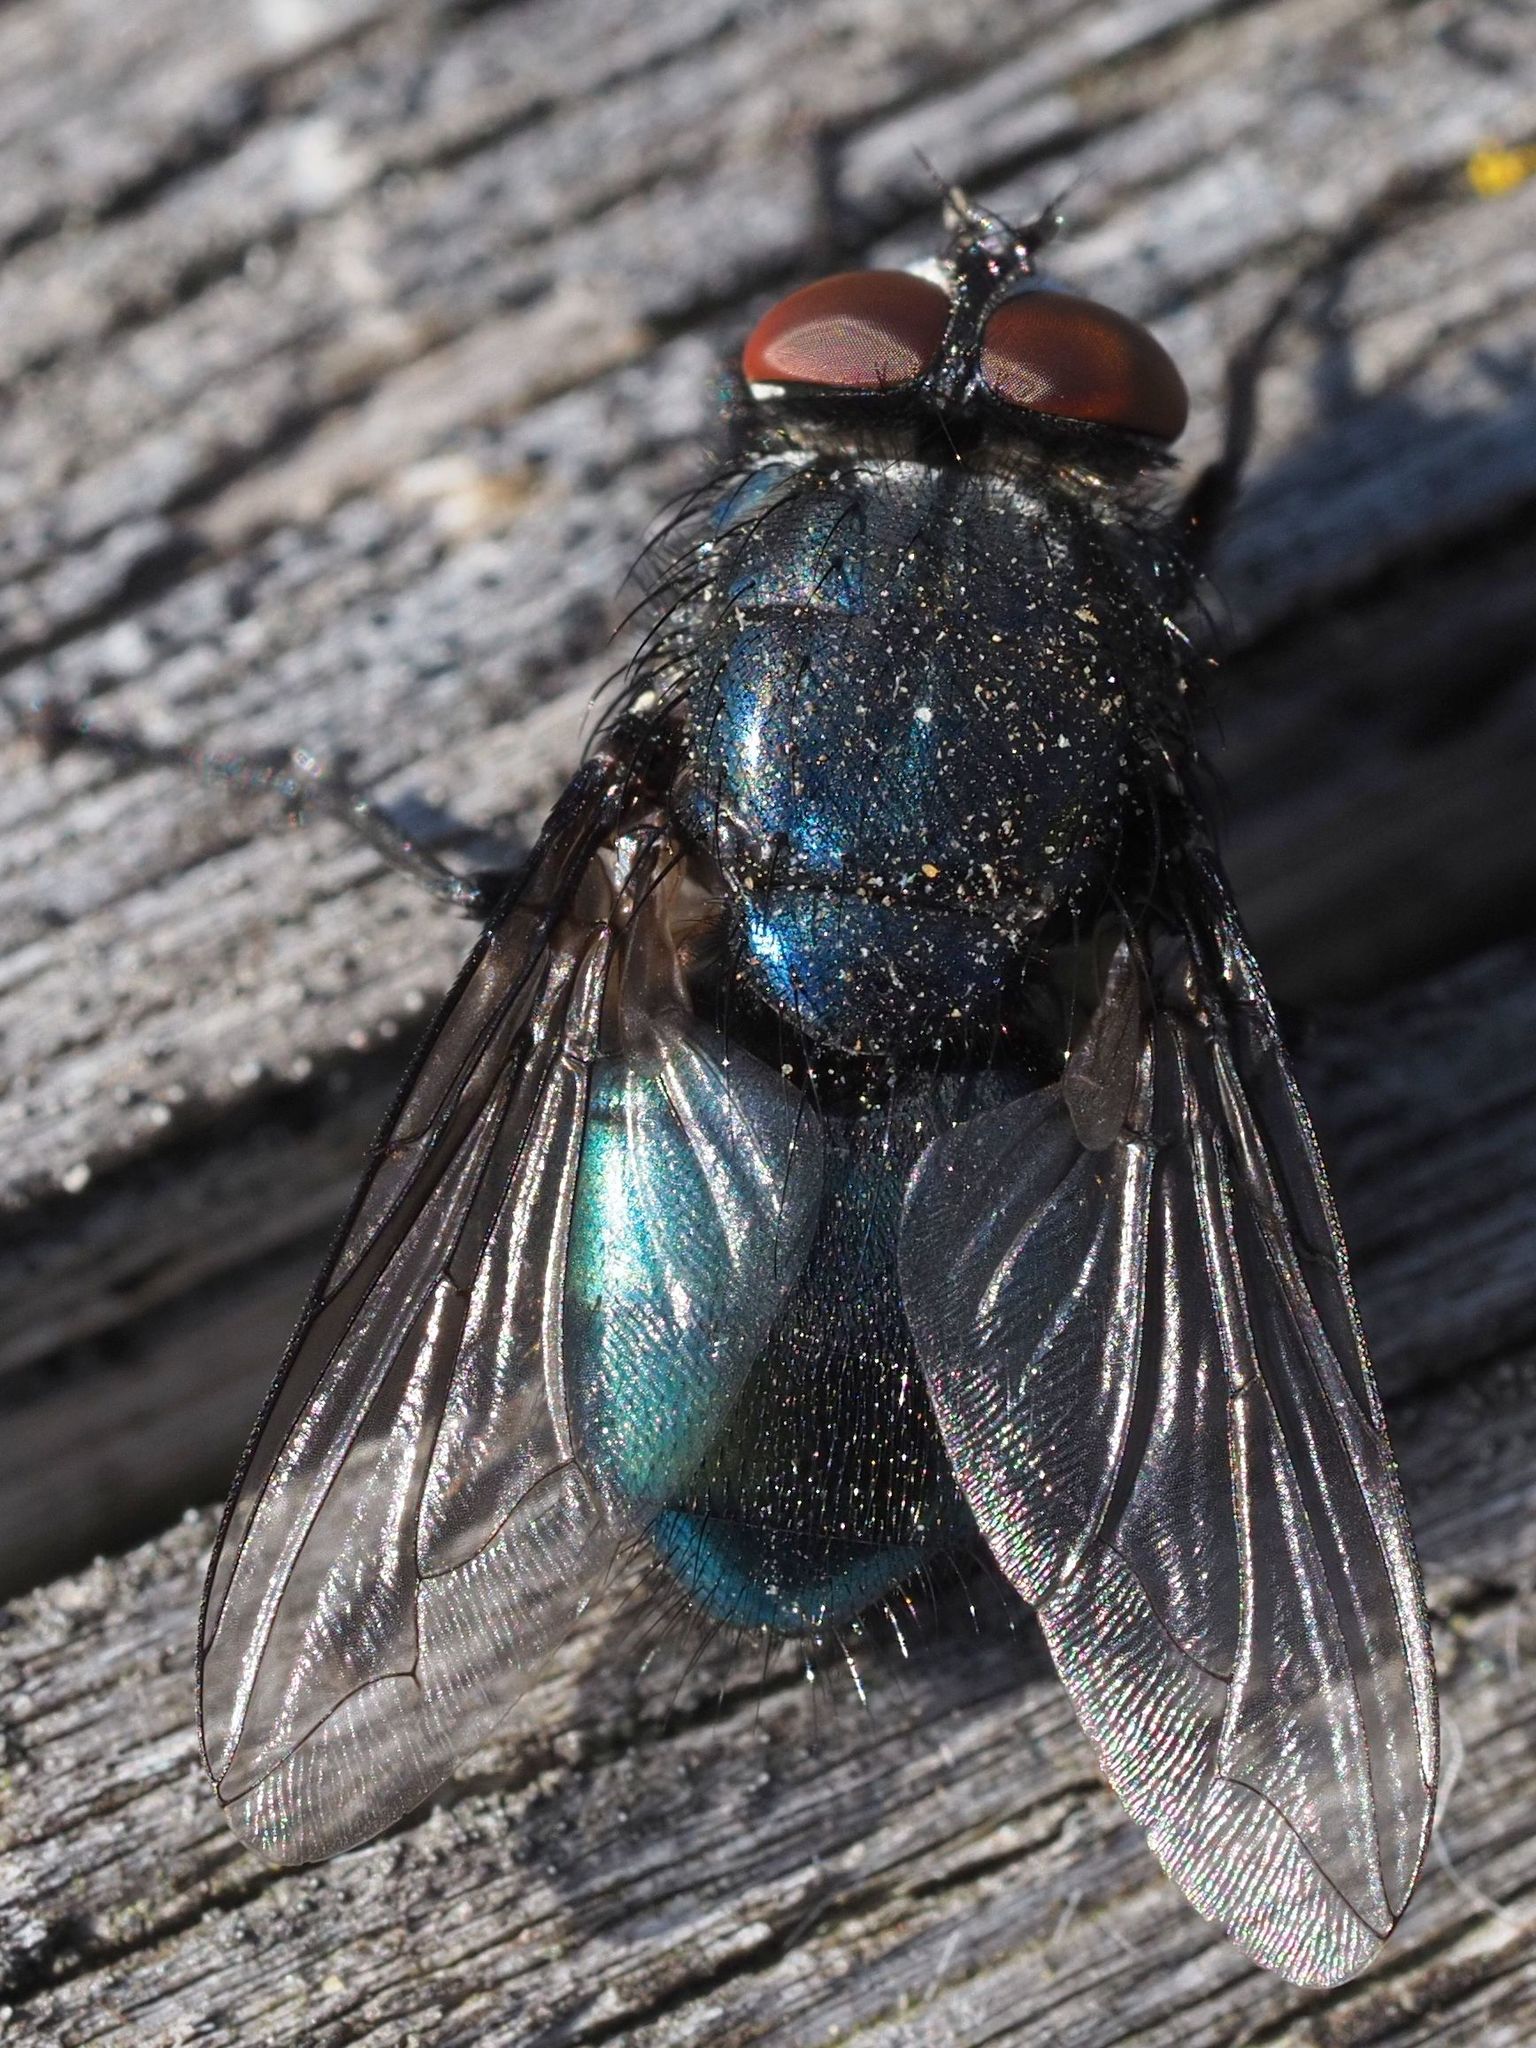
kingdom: Animalia
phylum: Arthropoda
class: Insecta
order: Diptera
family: Calliphoridae
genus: Protocalliphora
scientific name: Protocalliphora azurea
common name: Bird blowfly
